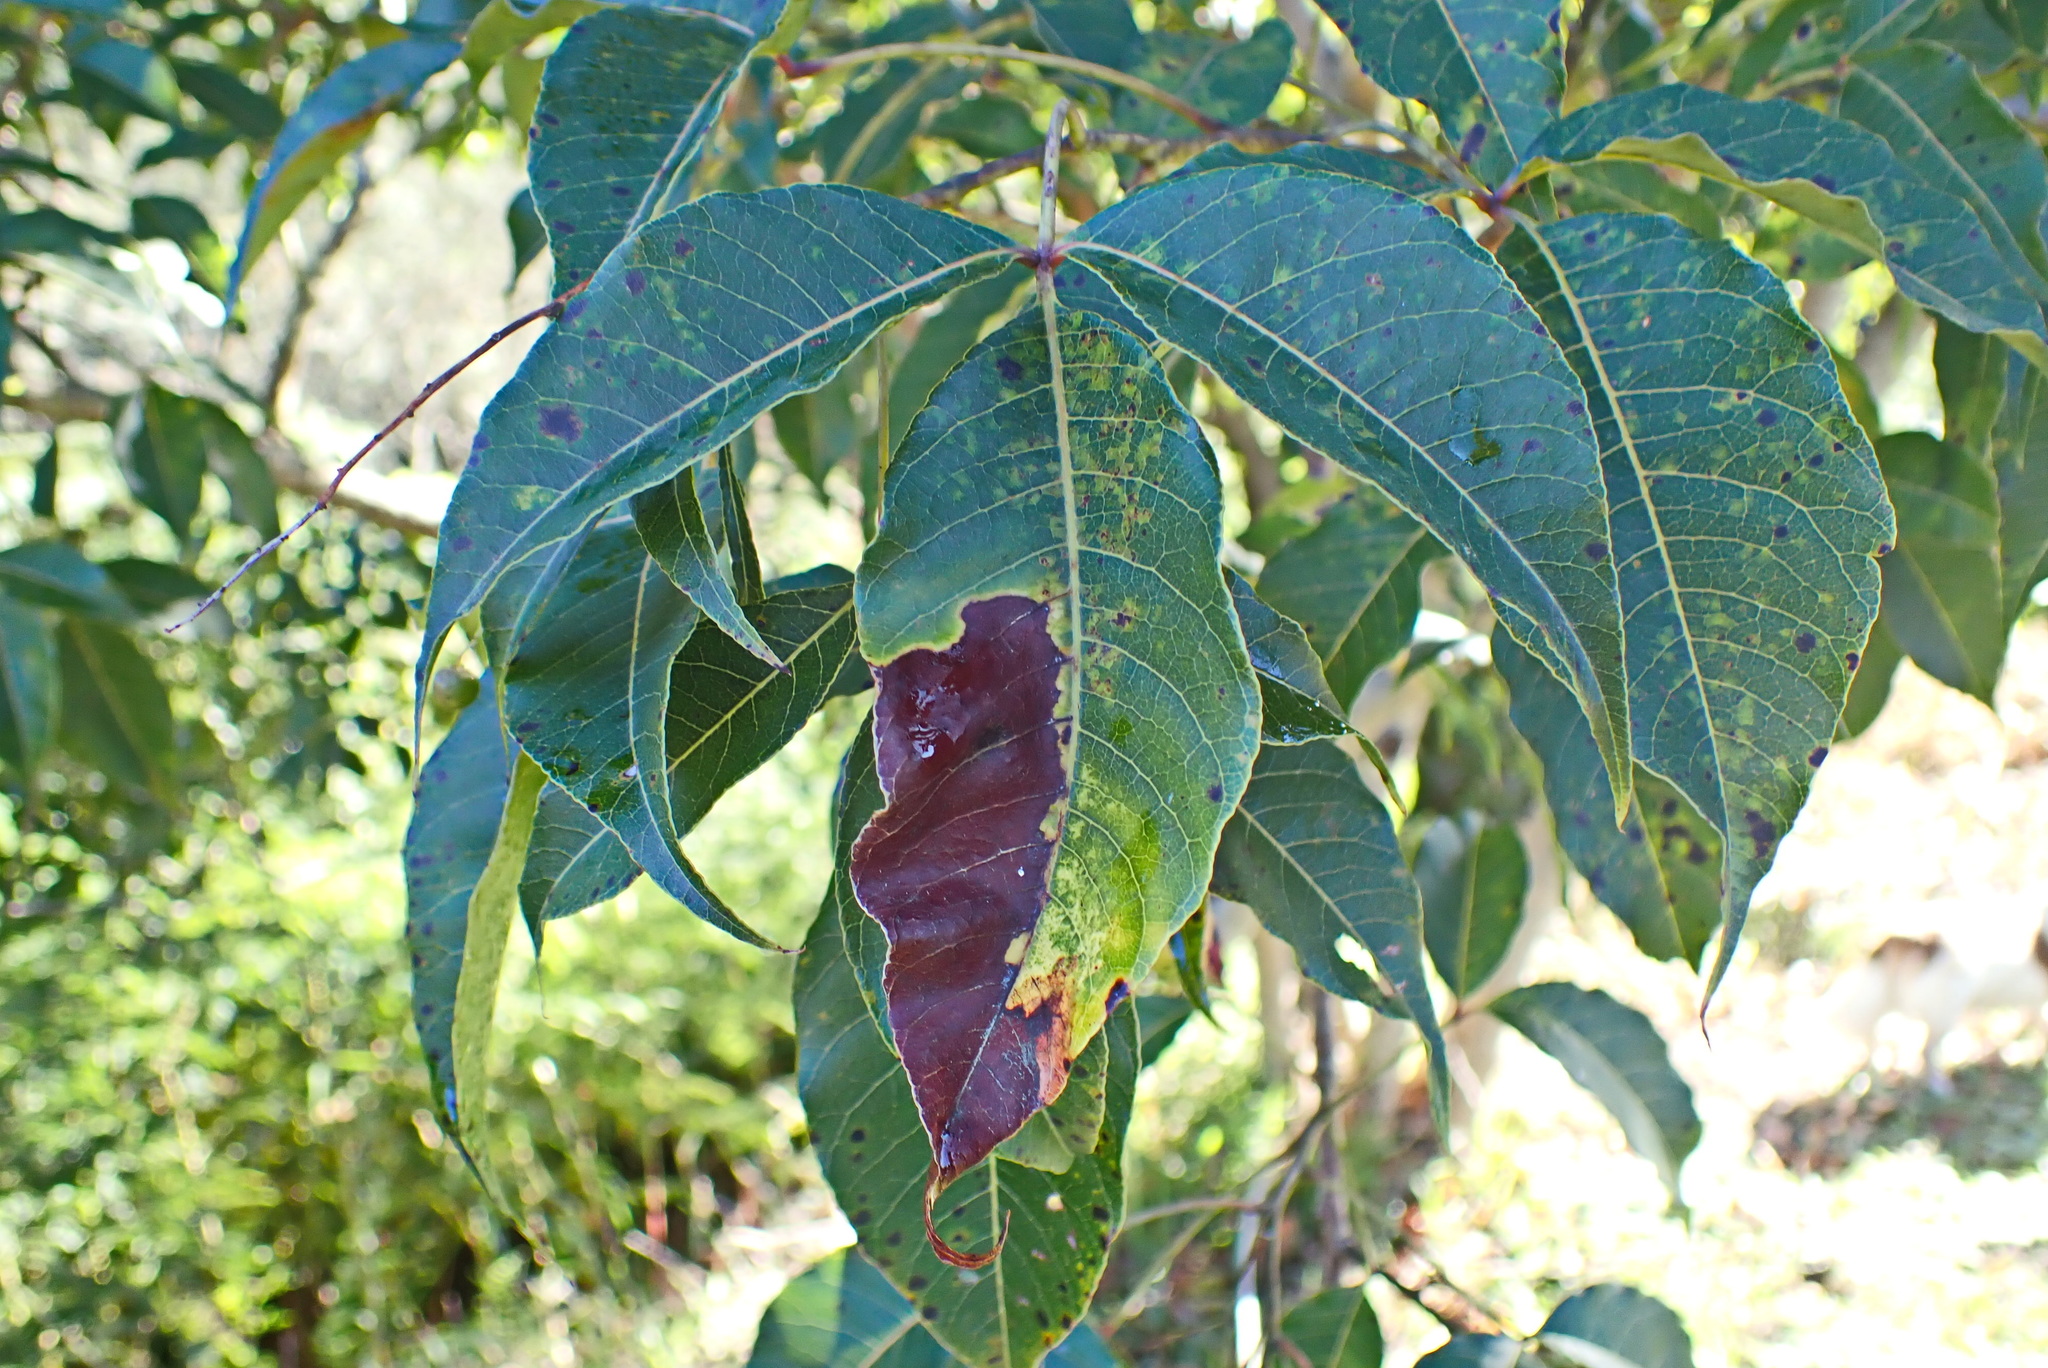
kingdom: Plantae
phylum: Tracheophyta
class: Magnoliopsida
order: Sapindales
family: Anacardiaceae
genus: Searsia
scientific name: Searsia chirindensis
